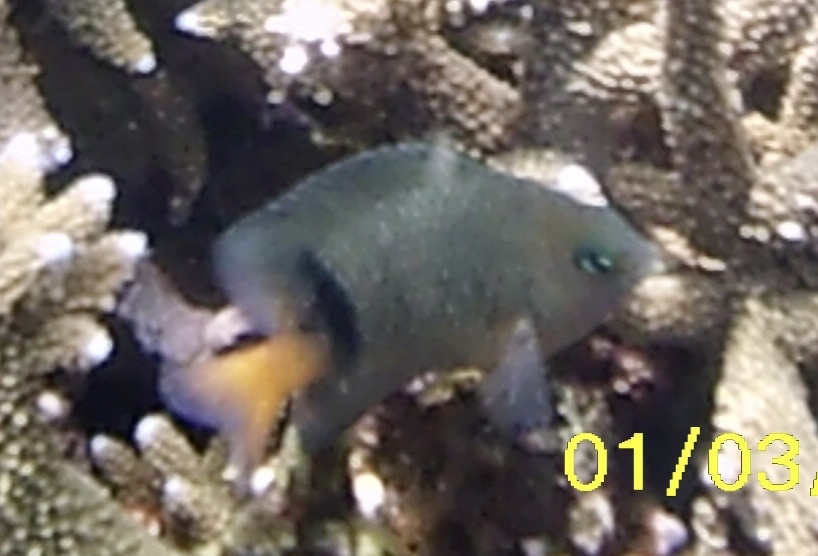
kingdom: Animalia
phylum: Chordata
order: Perciformes
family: Pomacentridae
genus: Plectroglyphidodon
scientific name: Plectroglyphidodon dickii
